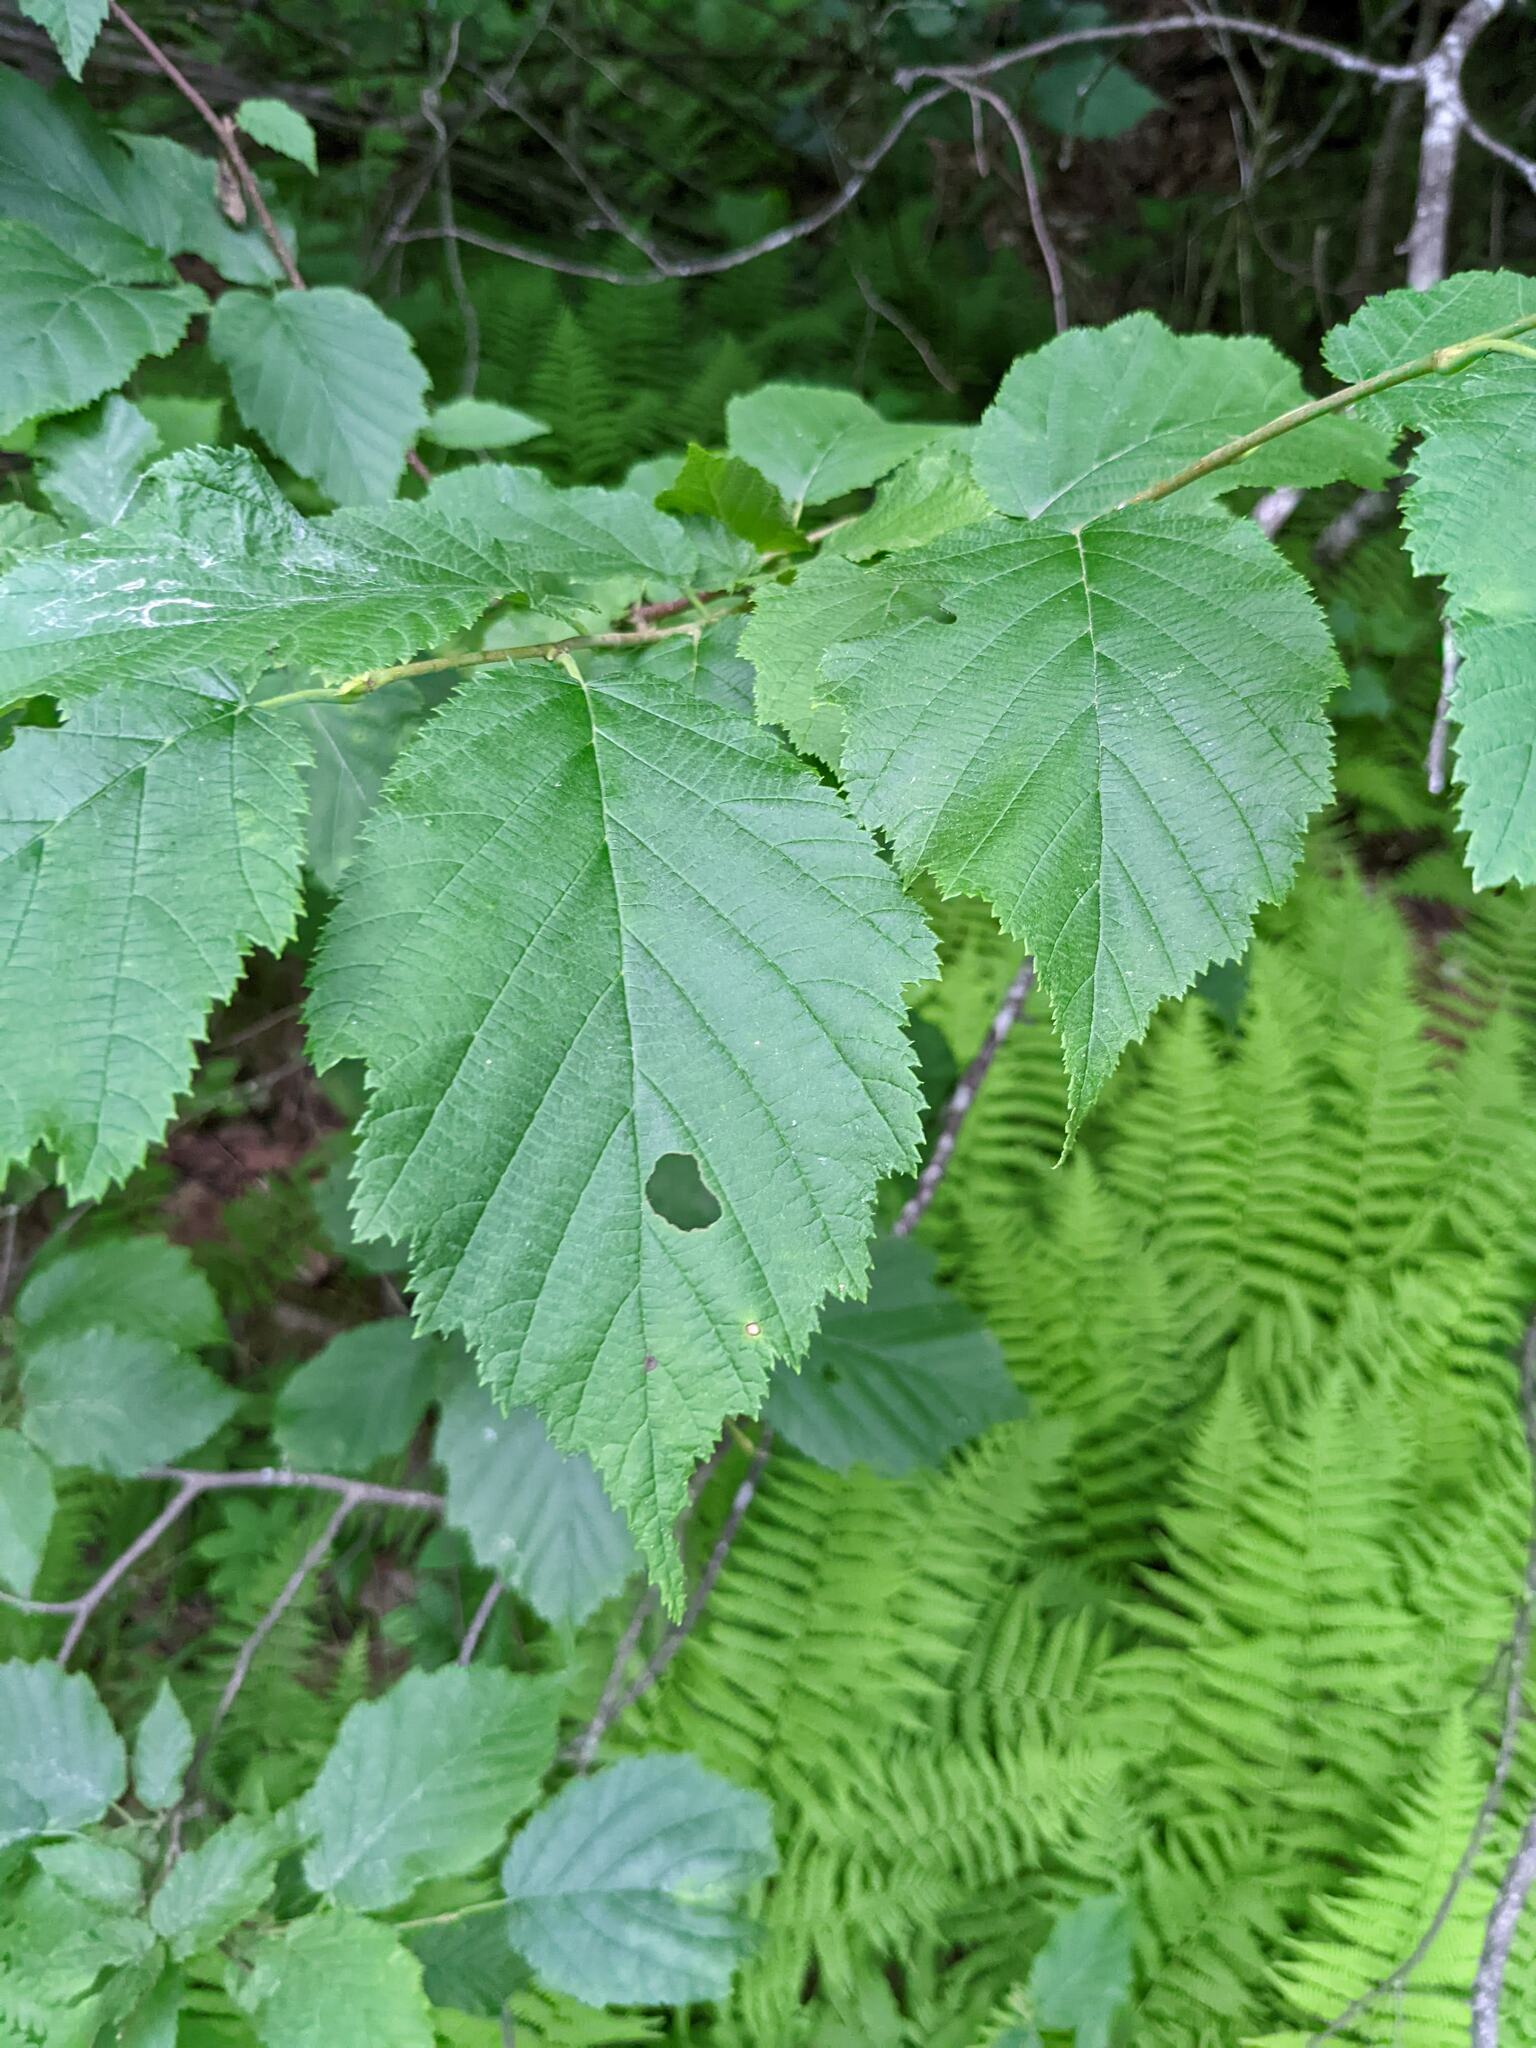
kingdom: Plantae
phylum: Tracheophyta
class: Magnoliopsida
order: Fagales
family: Betulaceae
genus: Corylus
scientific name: Corylus cornuta
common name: Beaked hazel
